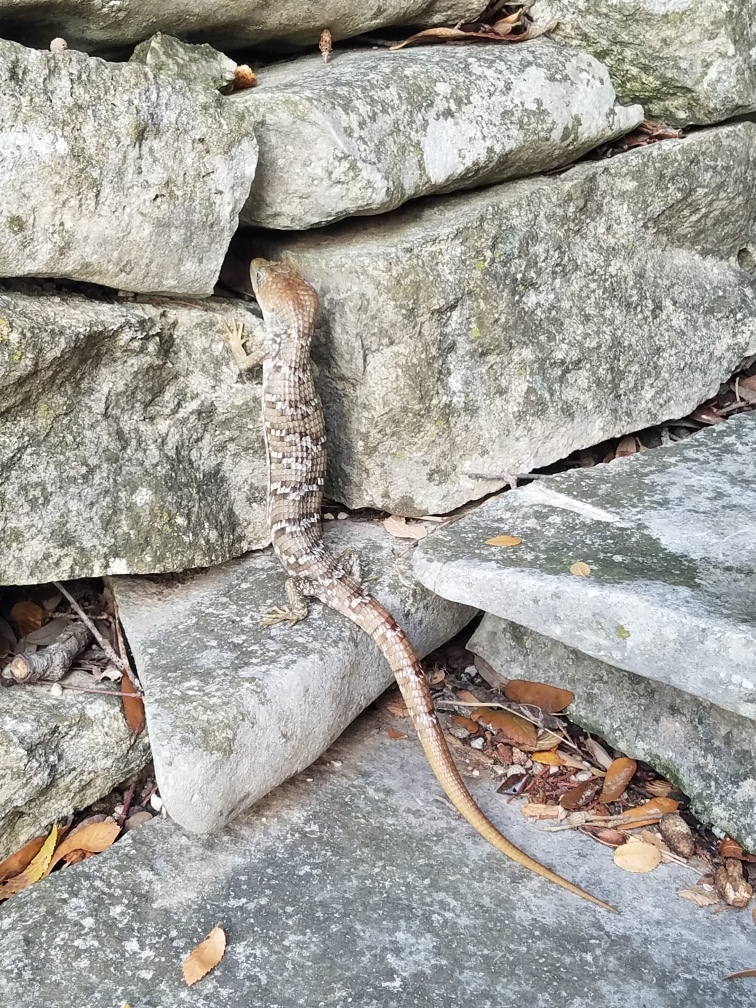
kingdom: Animalia
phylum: Chordata
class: Squamata
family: Anguidae
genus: Gerrhonotus
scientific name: Gerrhonotus infernalis
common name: Texas alligator lizard
